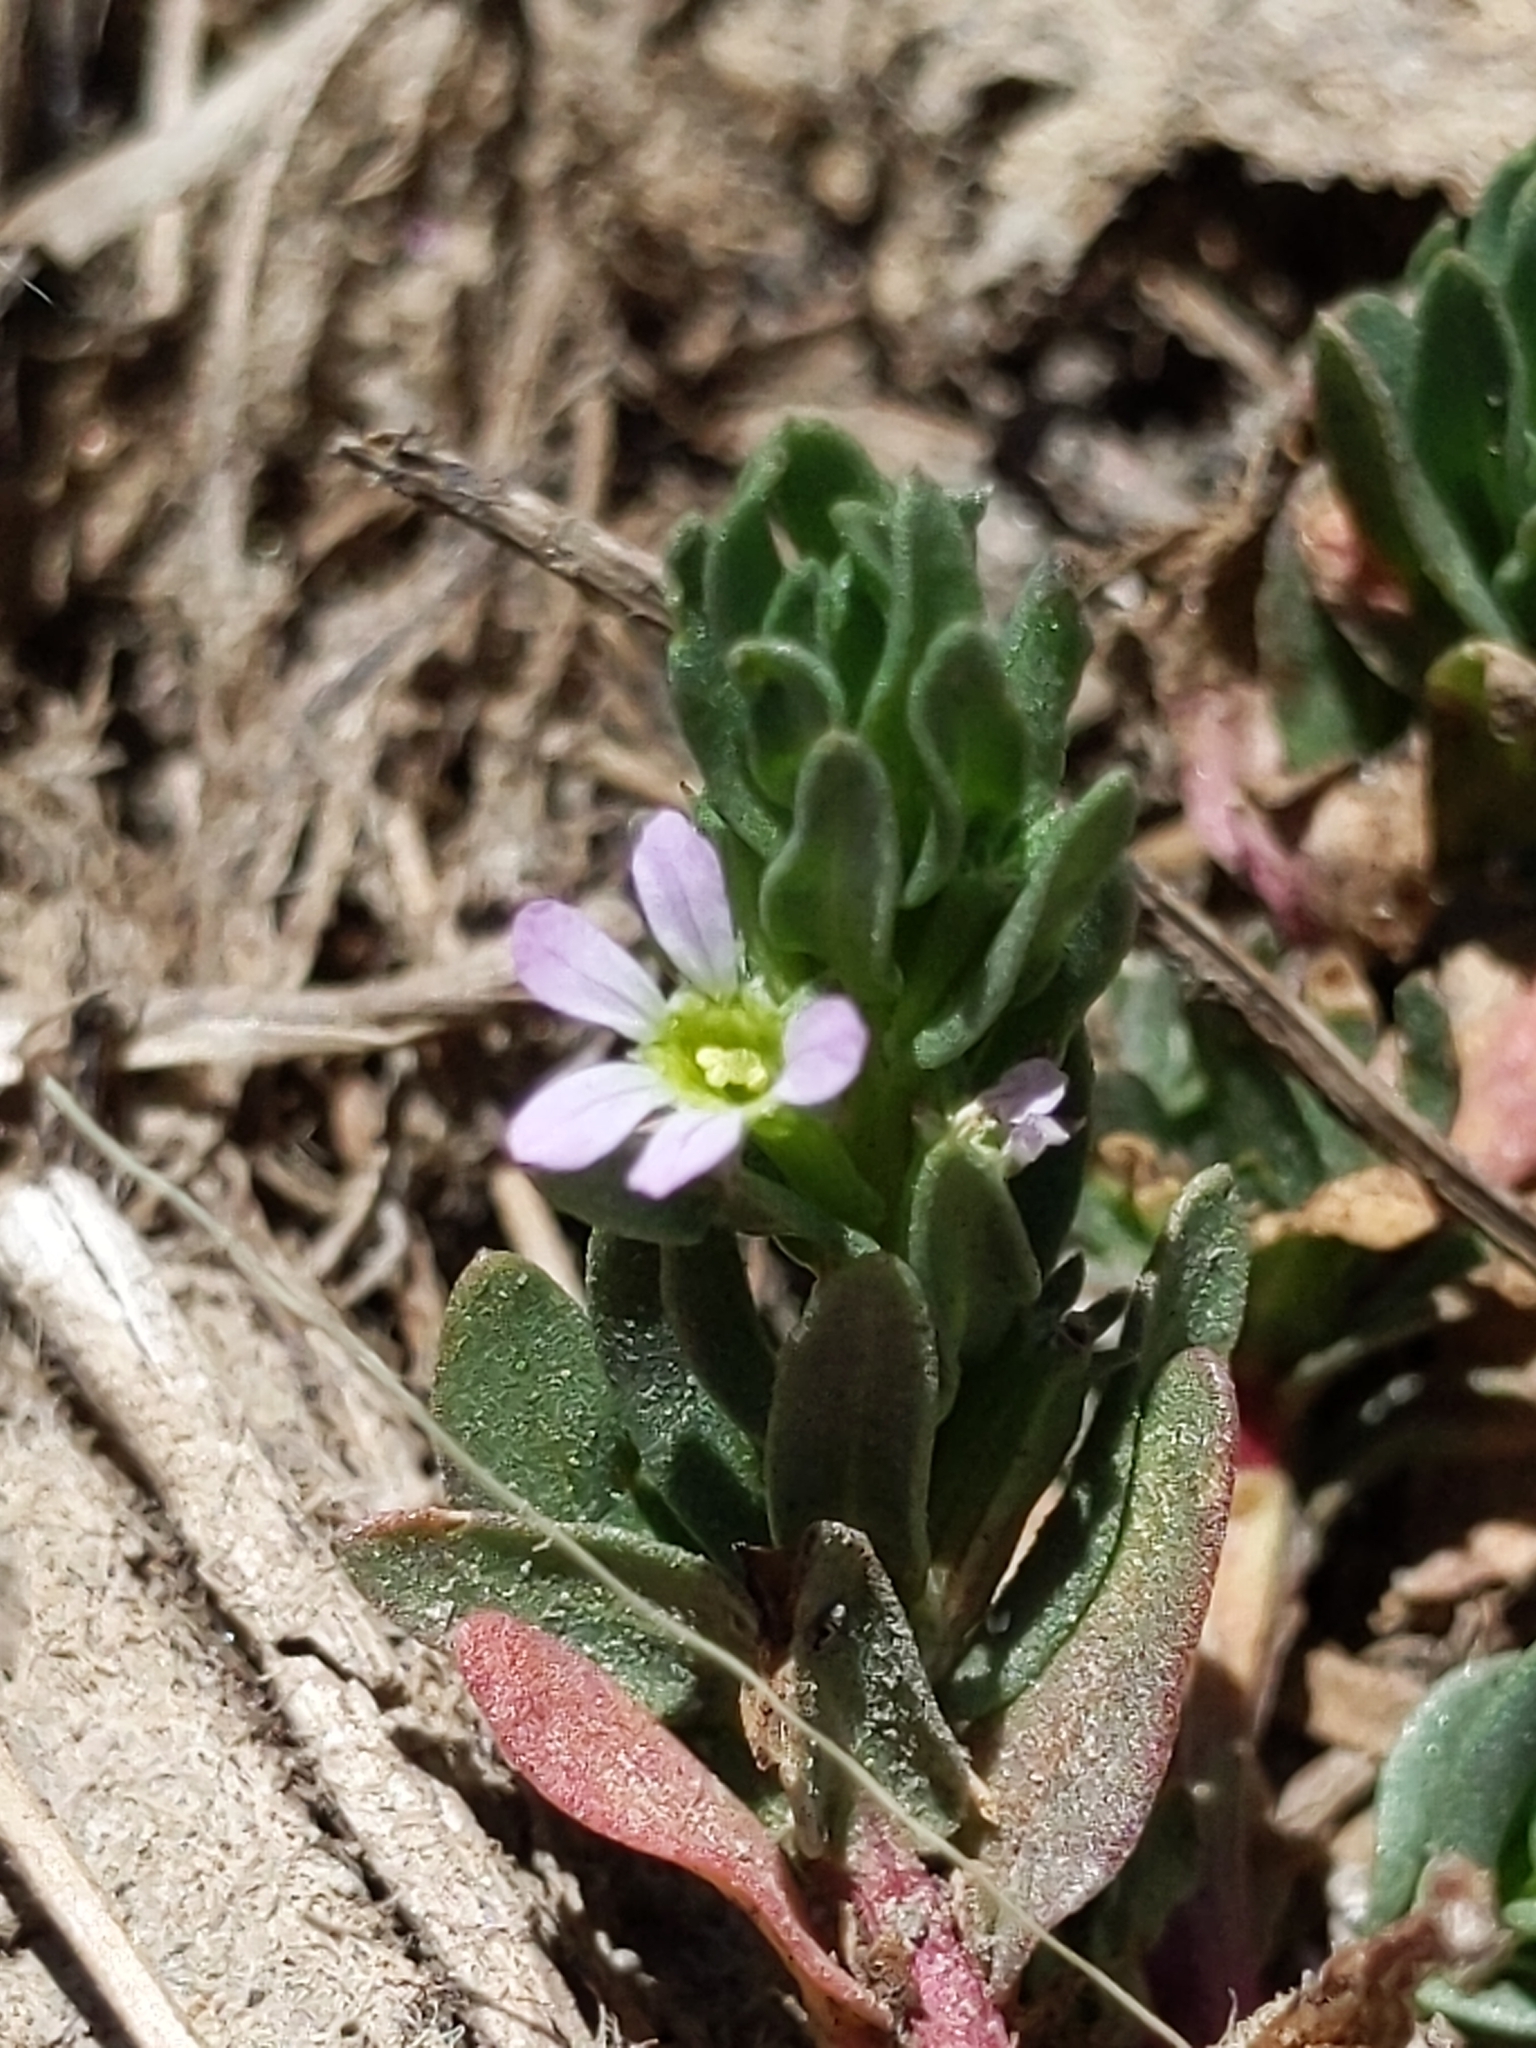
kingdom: Plantae
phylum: Tracheophyta
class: Magnoliopsida
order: Myrtales
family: Lythraceae
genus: Lythrum
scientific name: Lythrum hyssopifolia
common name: Grass-poly
